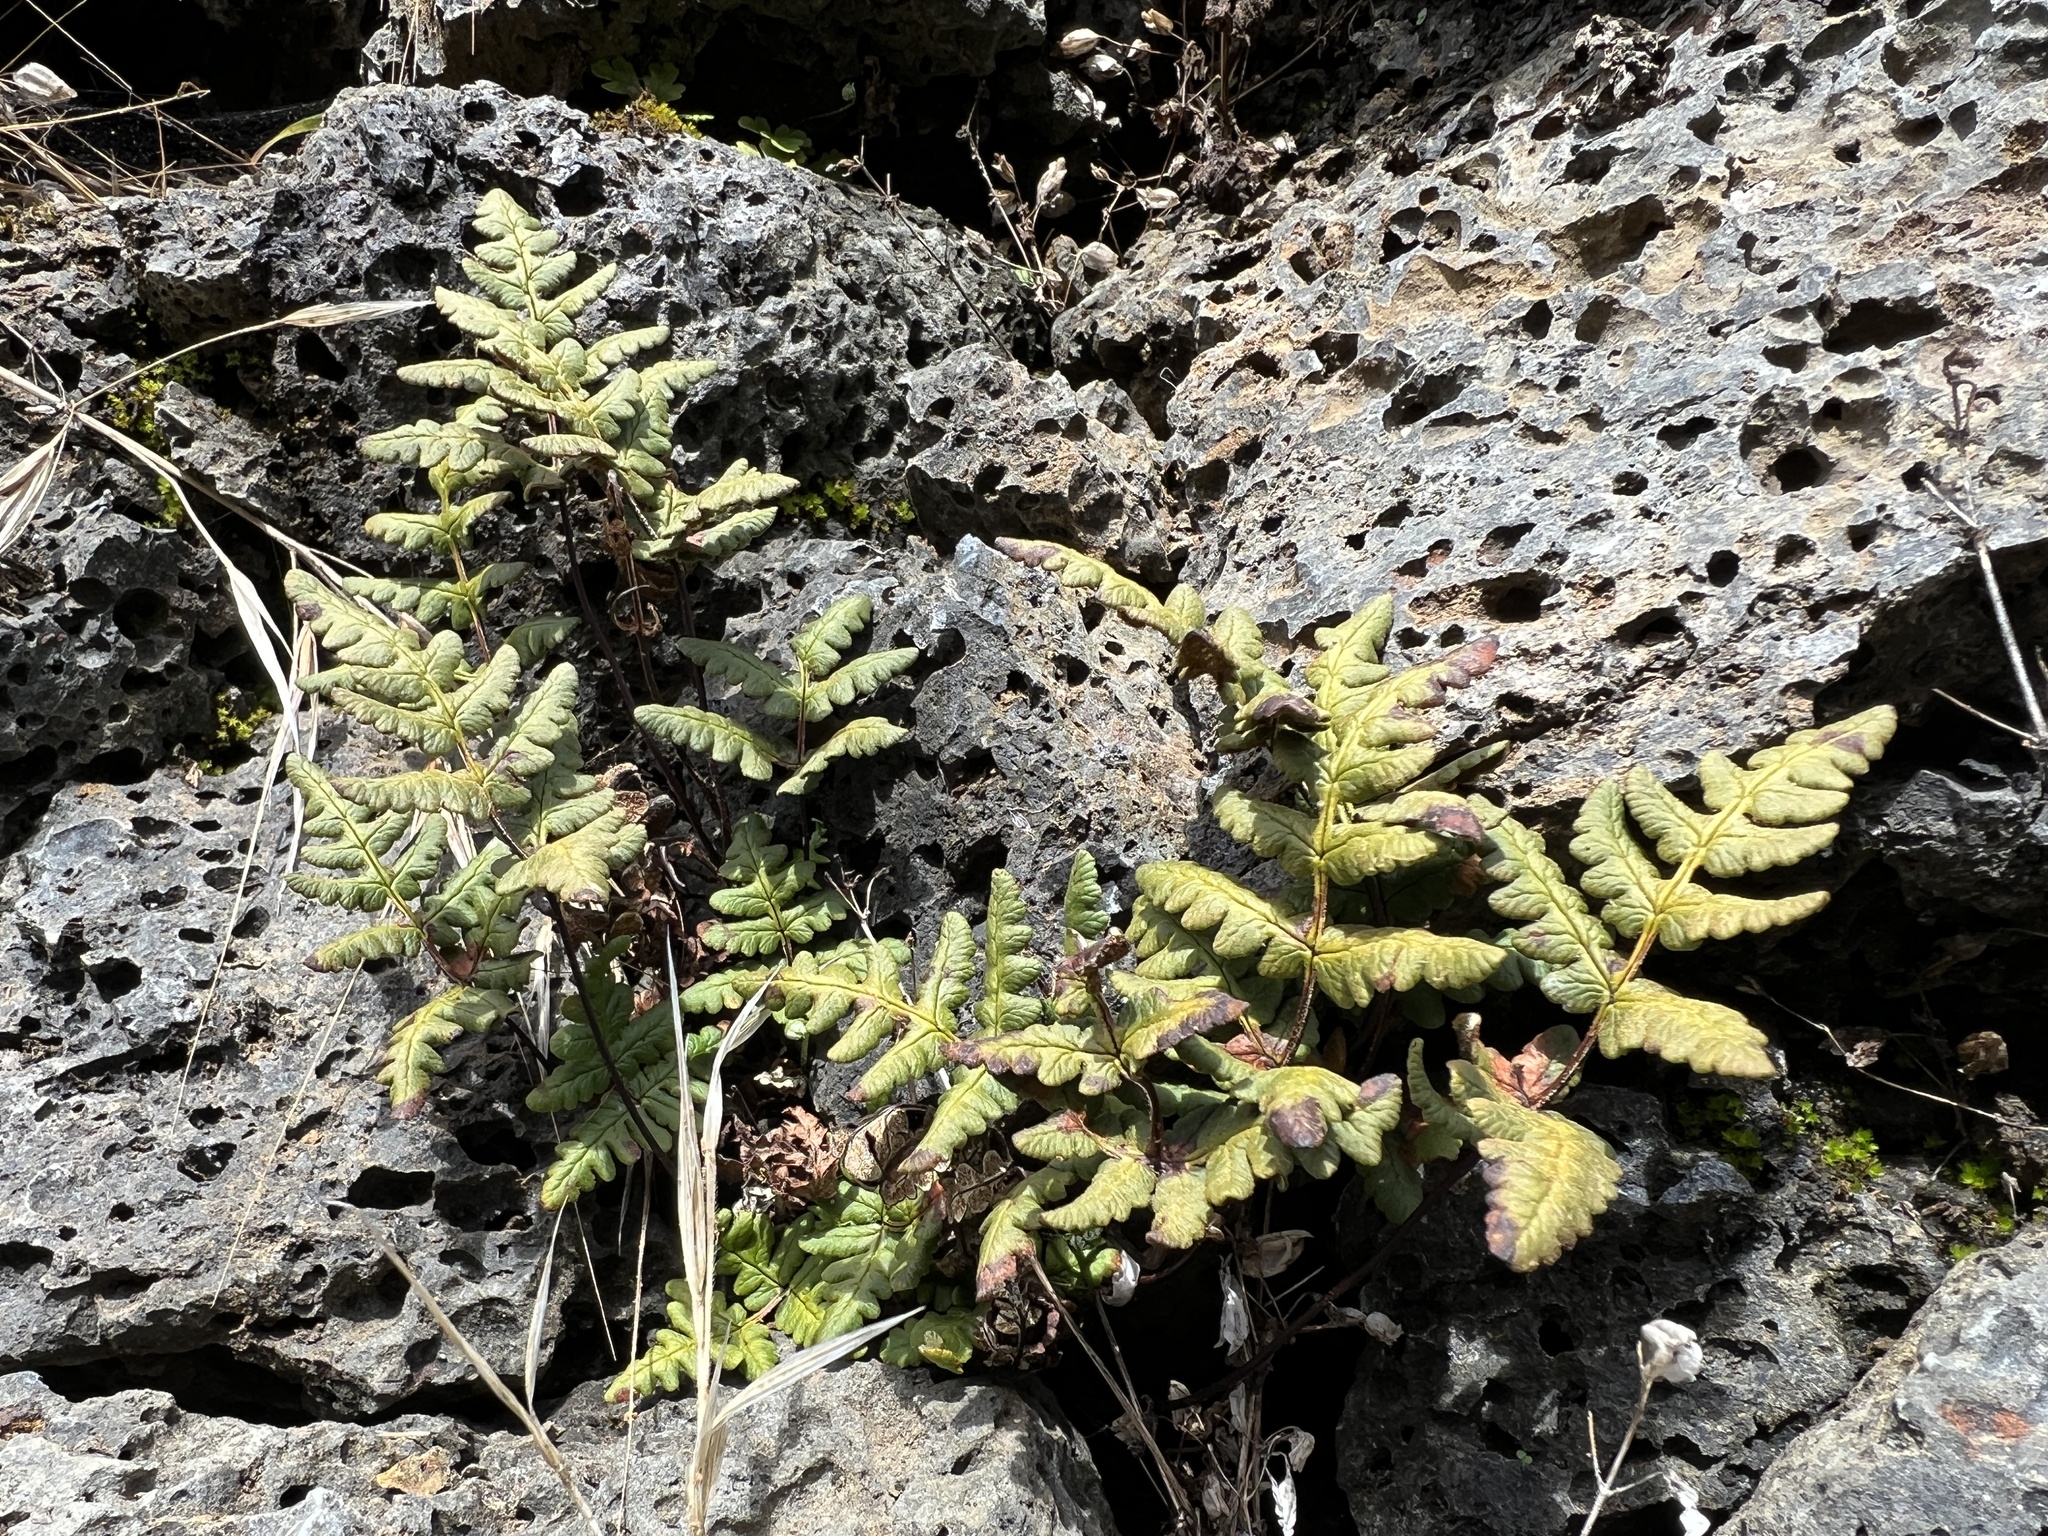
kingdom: Plantae
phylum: Tracheophyta
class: Polypodiopsida
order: Polypodiales
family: Pteridaceae
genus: Pentagramma
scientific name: Pentagramma triangularis
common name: Gold fern
